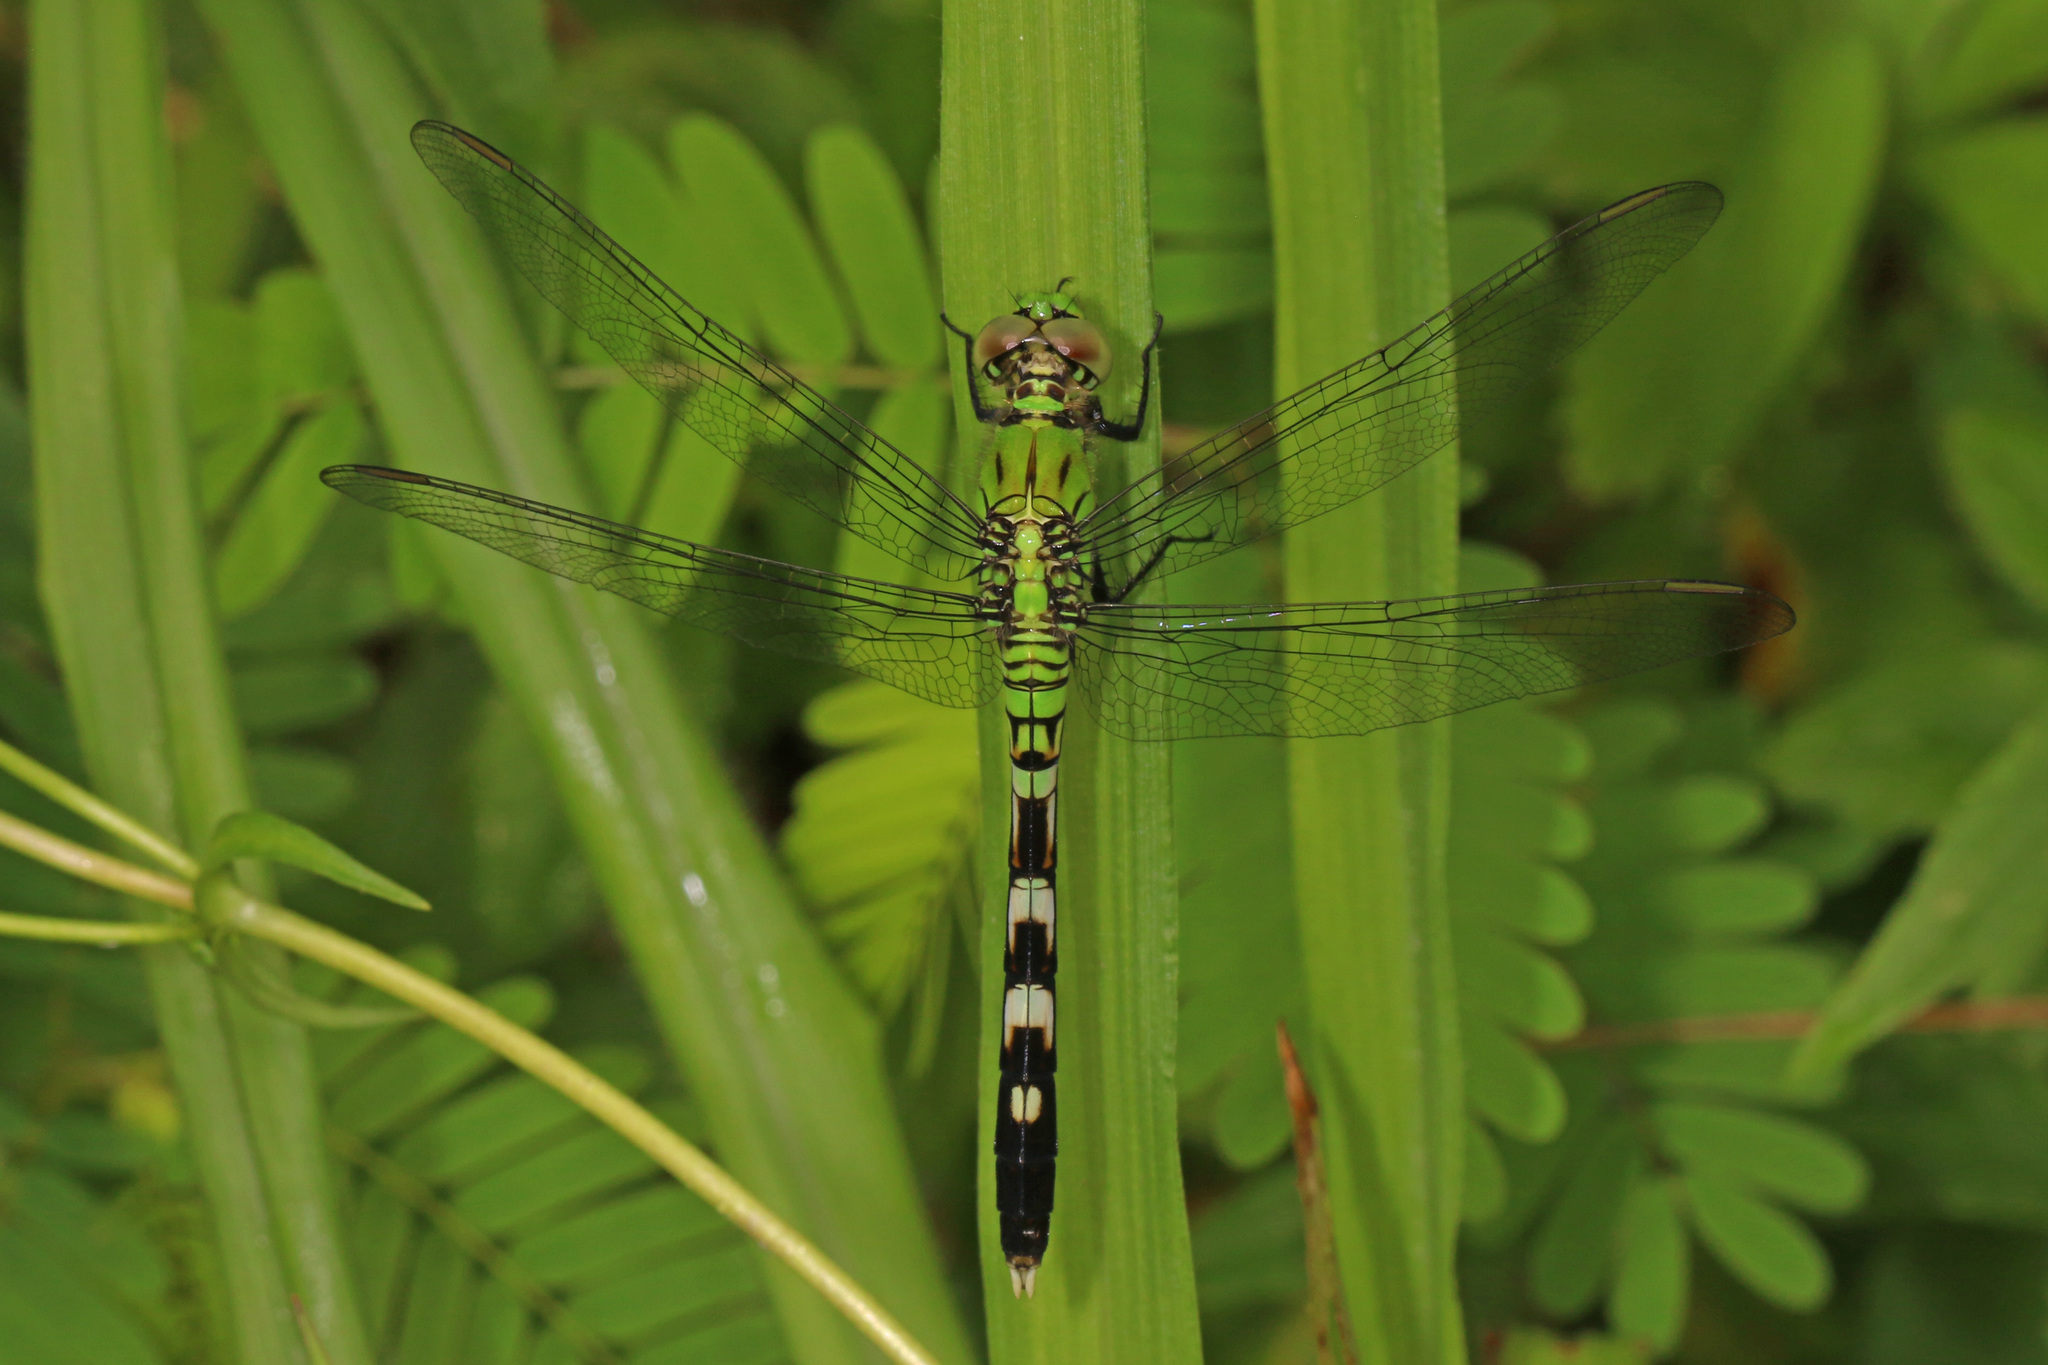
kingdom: Animalia
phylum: Arthropoda
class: Insecta
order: Odonata
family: Libellulidae
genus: Erythemis
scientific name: Erythemis simplicicollis
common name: Eastern pondhawk
